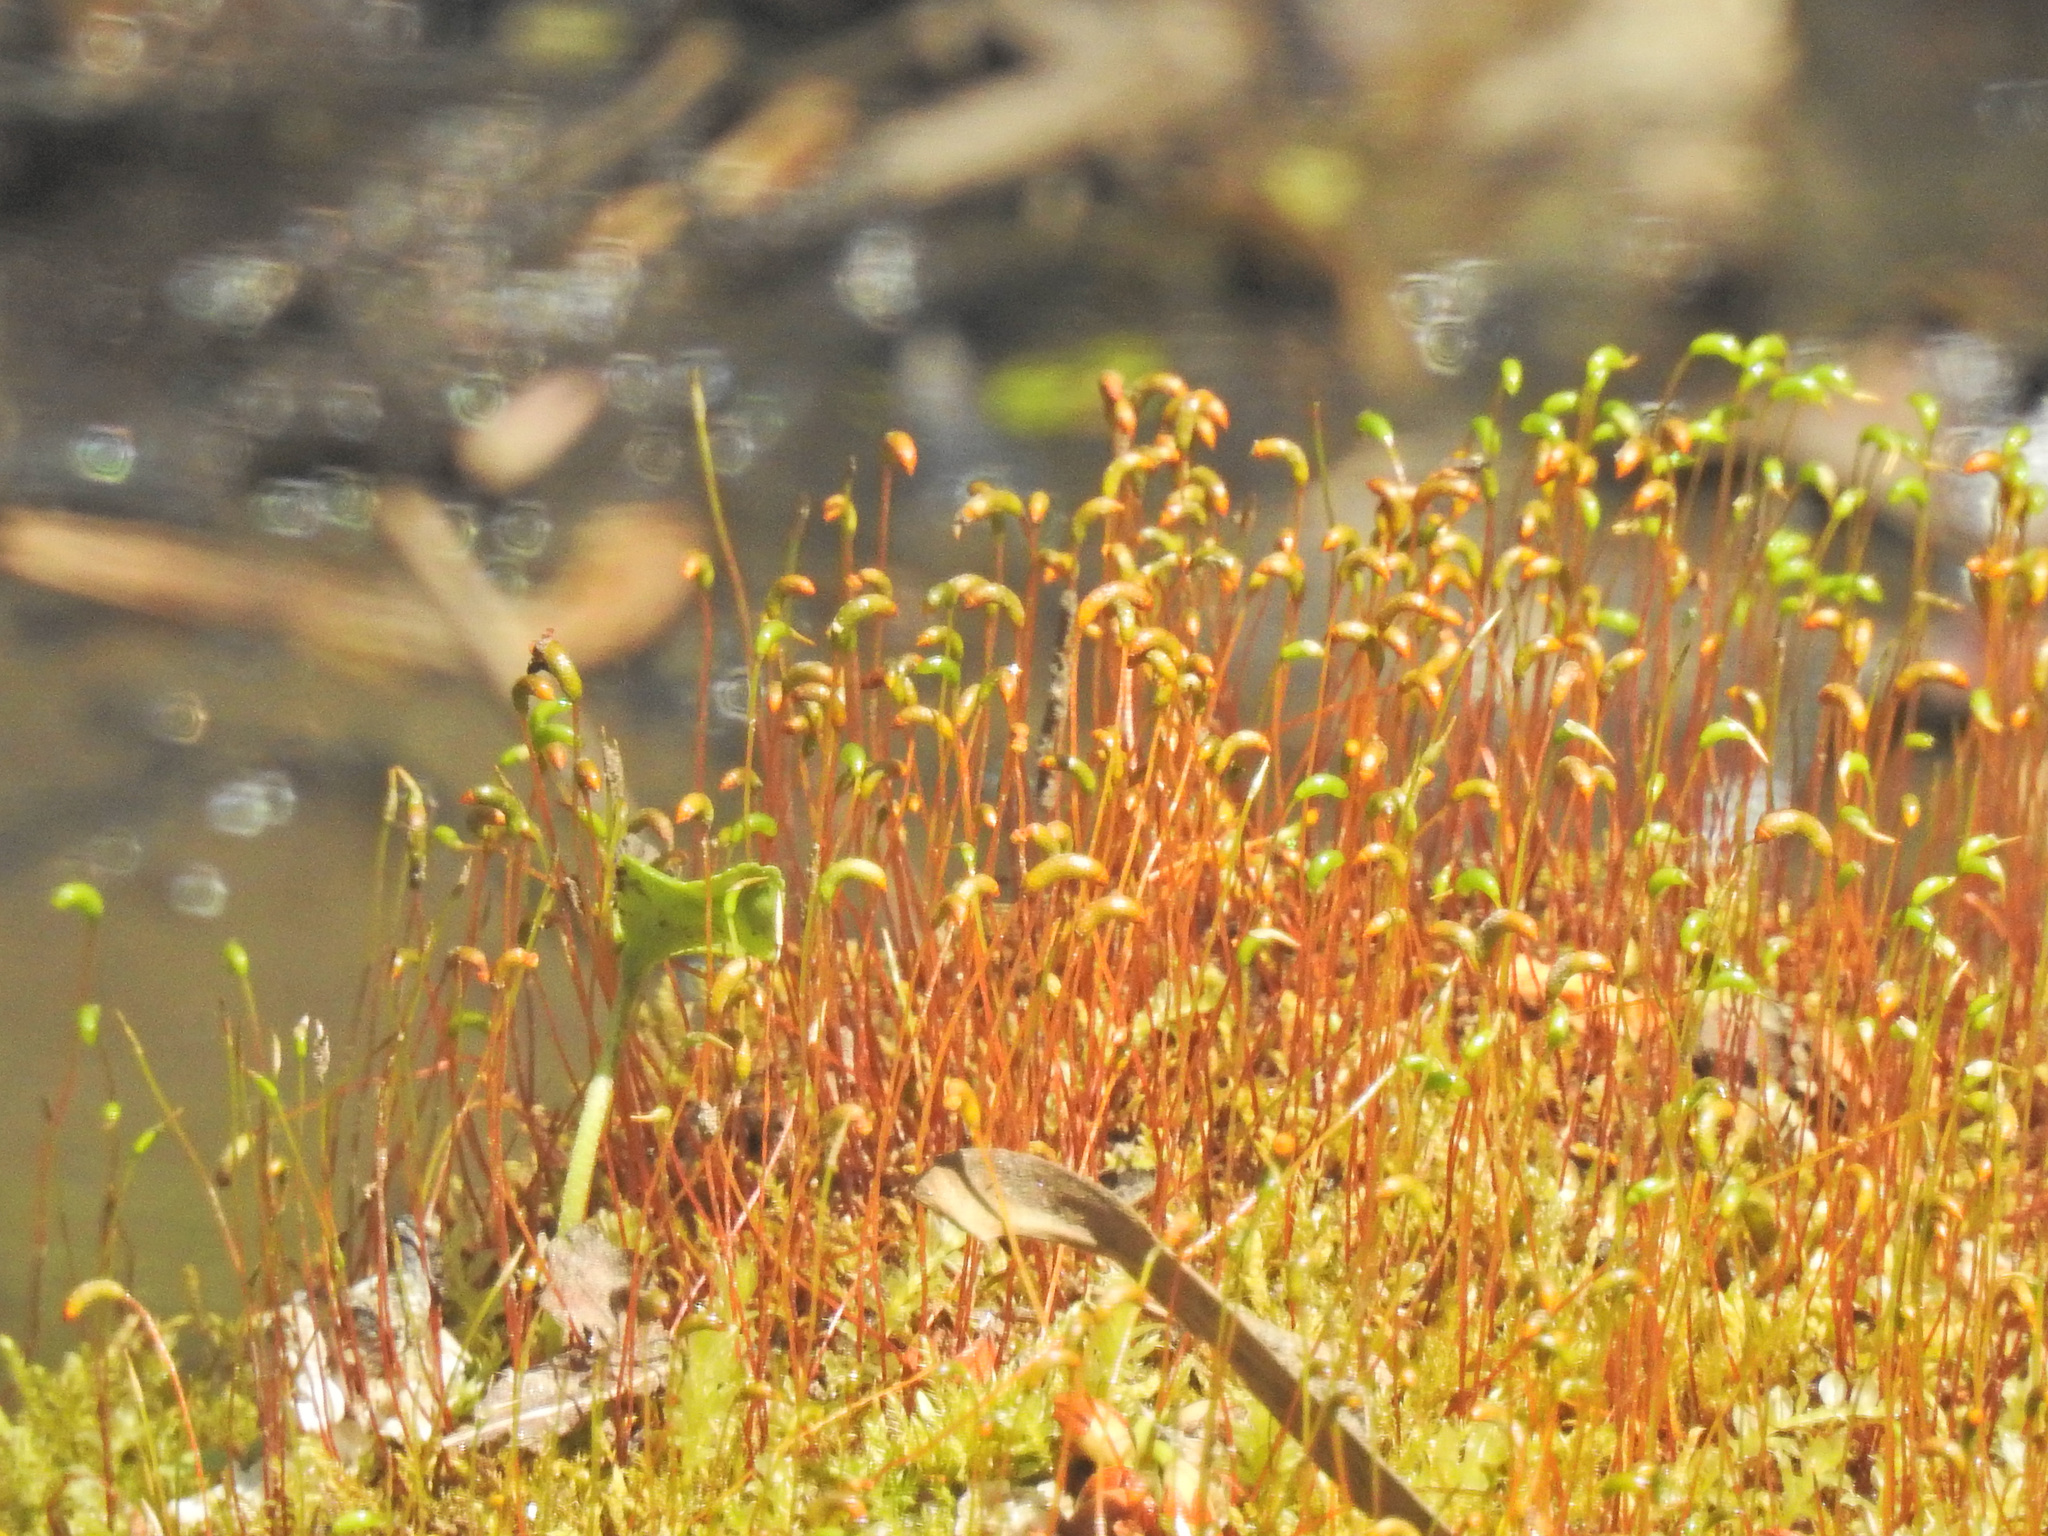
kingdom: Plantae
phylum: Bryophyta
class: Bryopsida
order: Dicranales
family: Ditrichaceae
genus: Ceratodon
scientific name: Ceratodon purpureus
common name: Redshank
